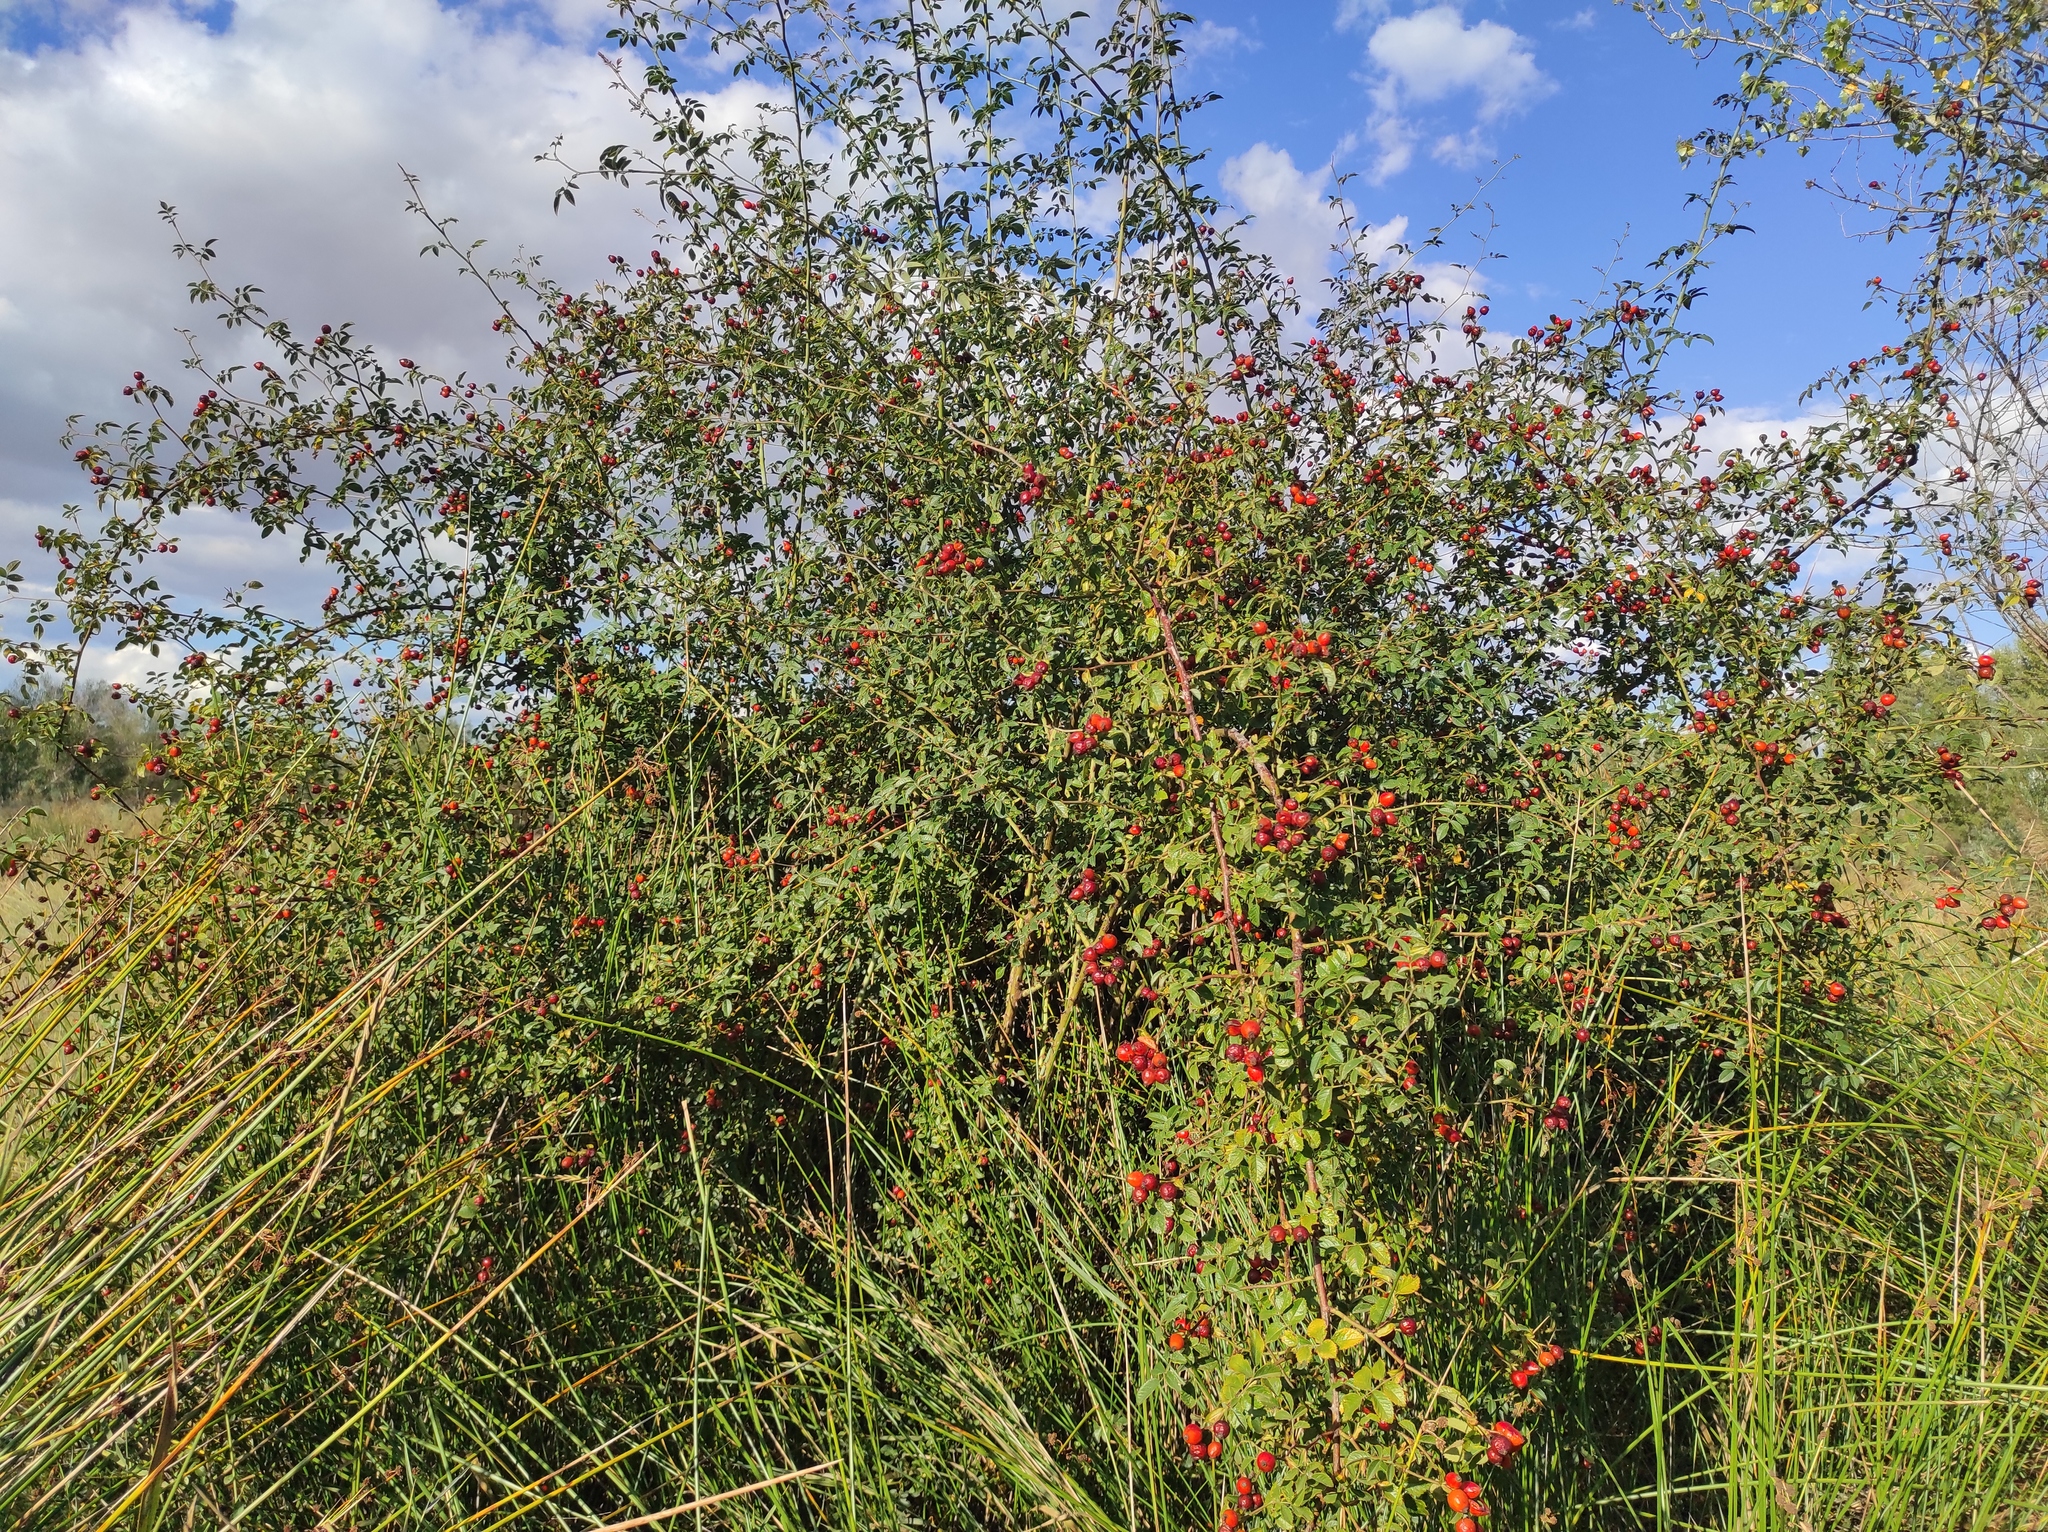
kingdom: Plantae
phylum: Tracheophyta
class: Magnoliopsida
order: Rosales
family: Rosaceae
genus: Rosa
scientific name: Rosa canina
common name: Dog rose
